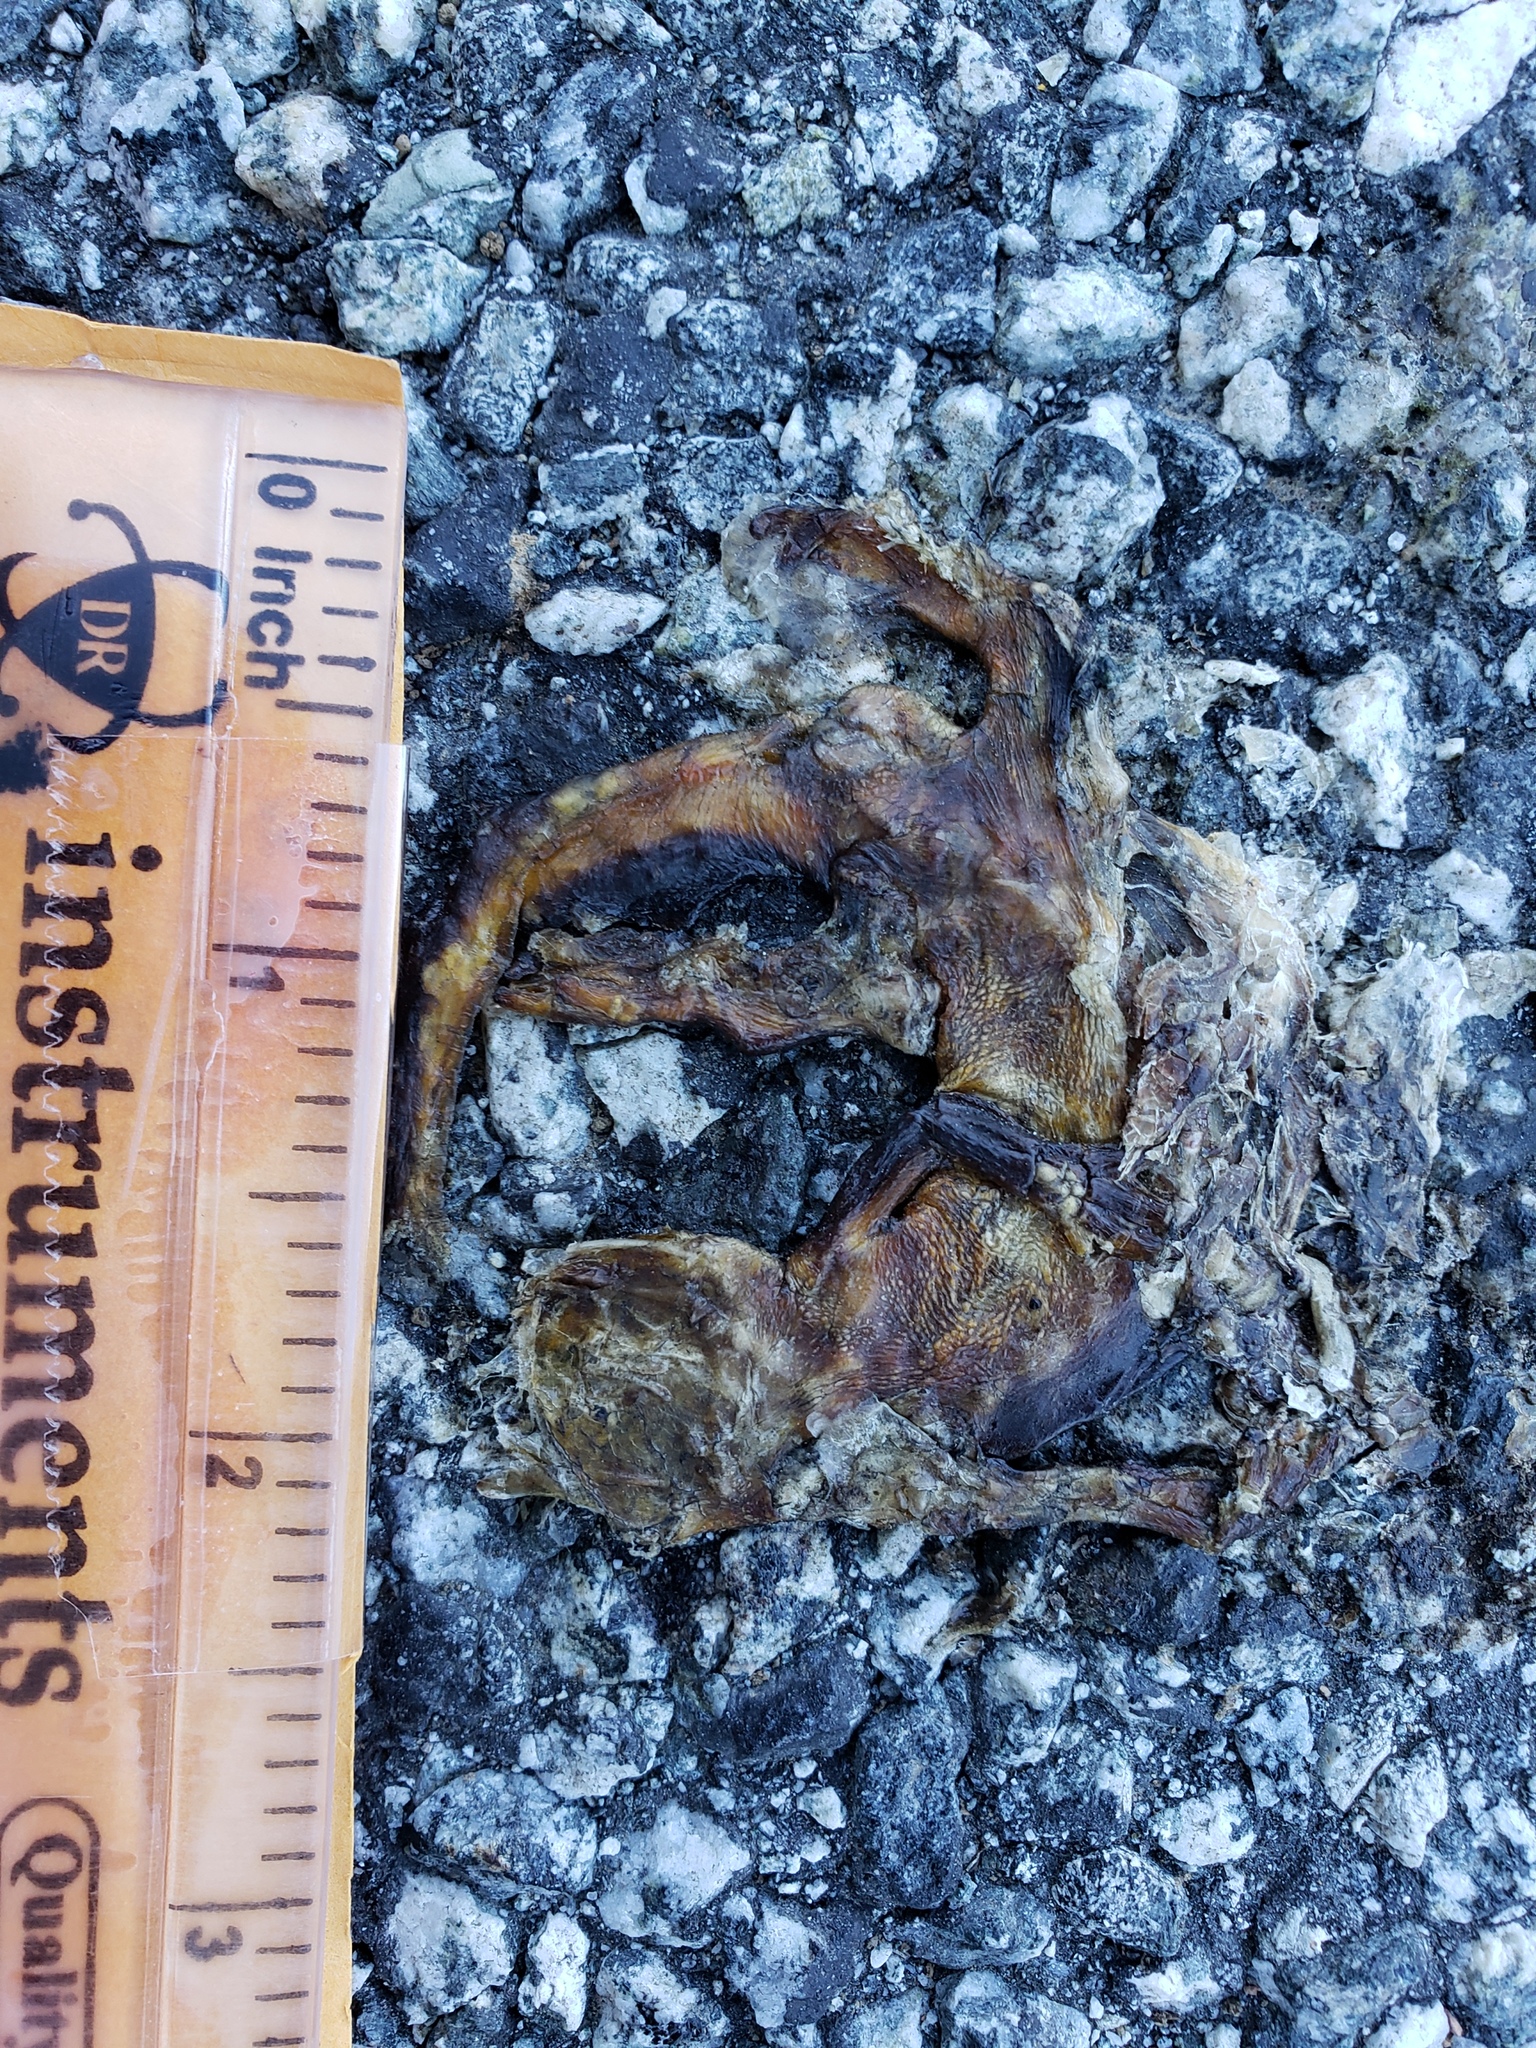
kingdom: Animalia
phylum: Chordata
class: Amphibia
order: Caudata
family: Salamandridae
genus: Taricha
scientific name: Taricha
